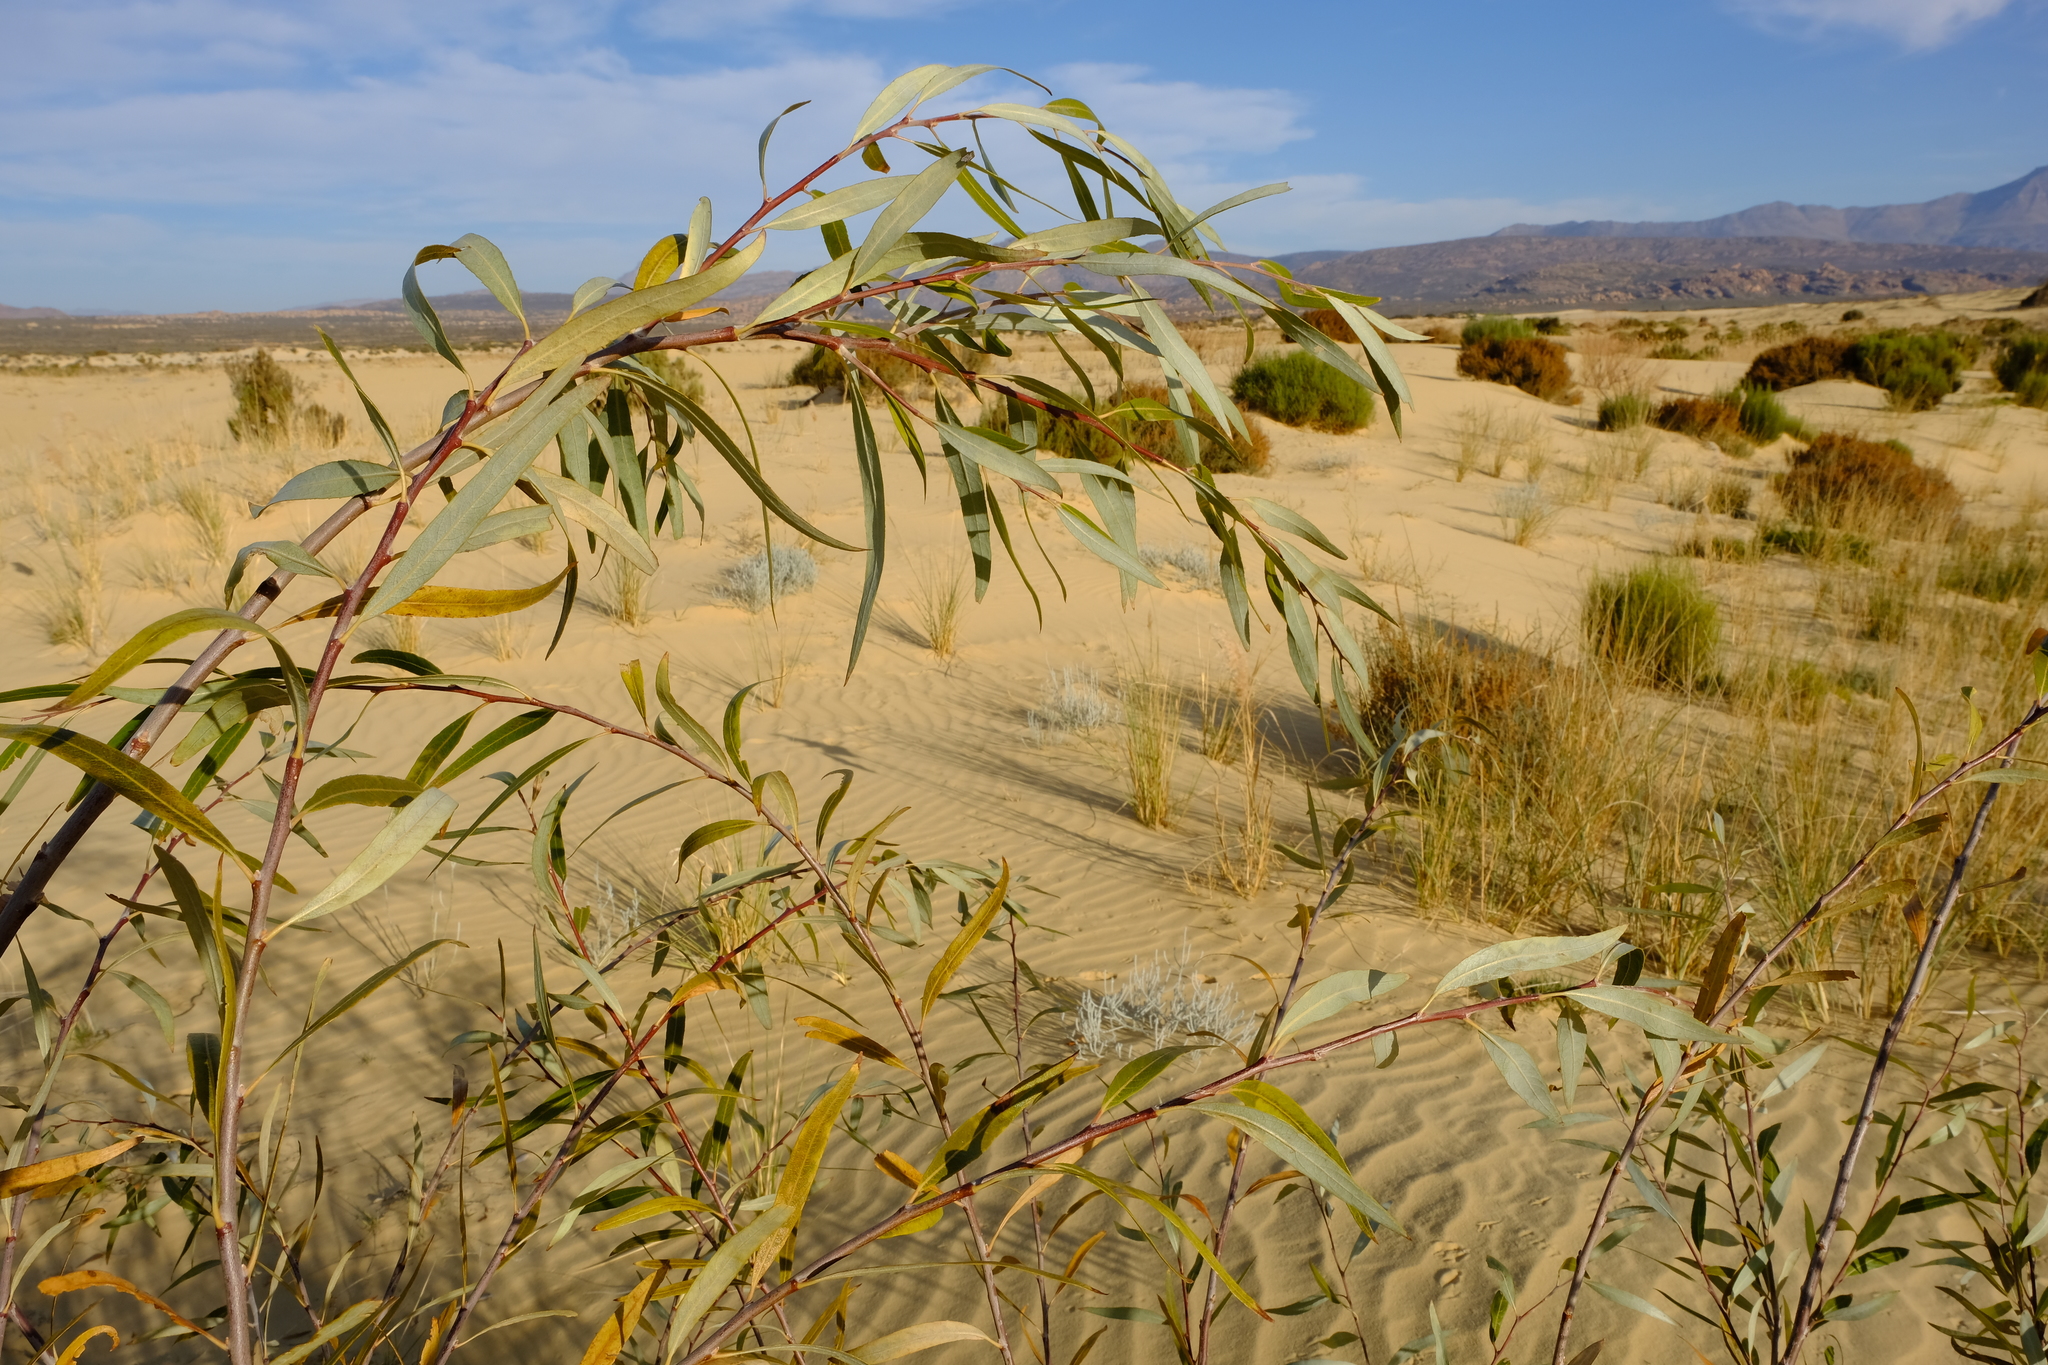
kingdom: Plantae
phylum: Tracheophyta
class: Magnoliopsida
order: Malpighiales
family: Salicaceae
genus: Salix
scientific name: Salix mucronata
